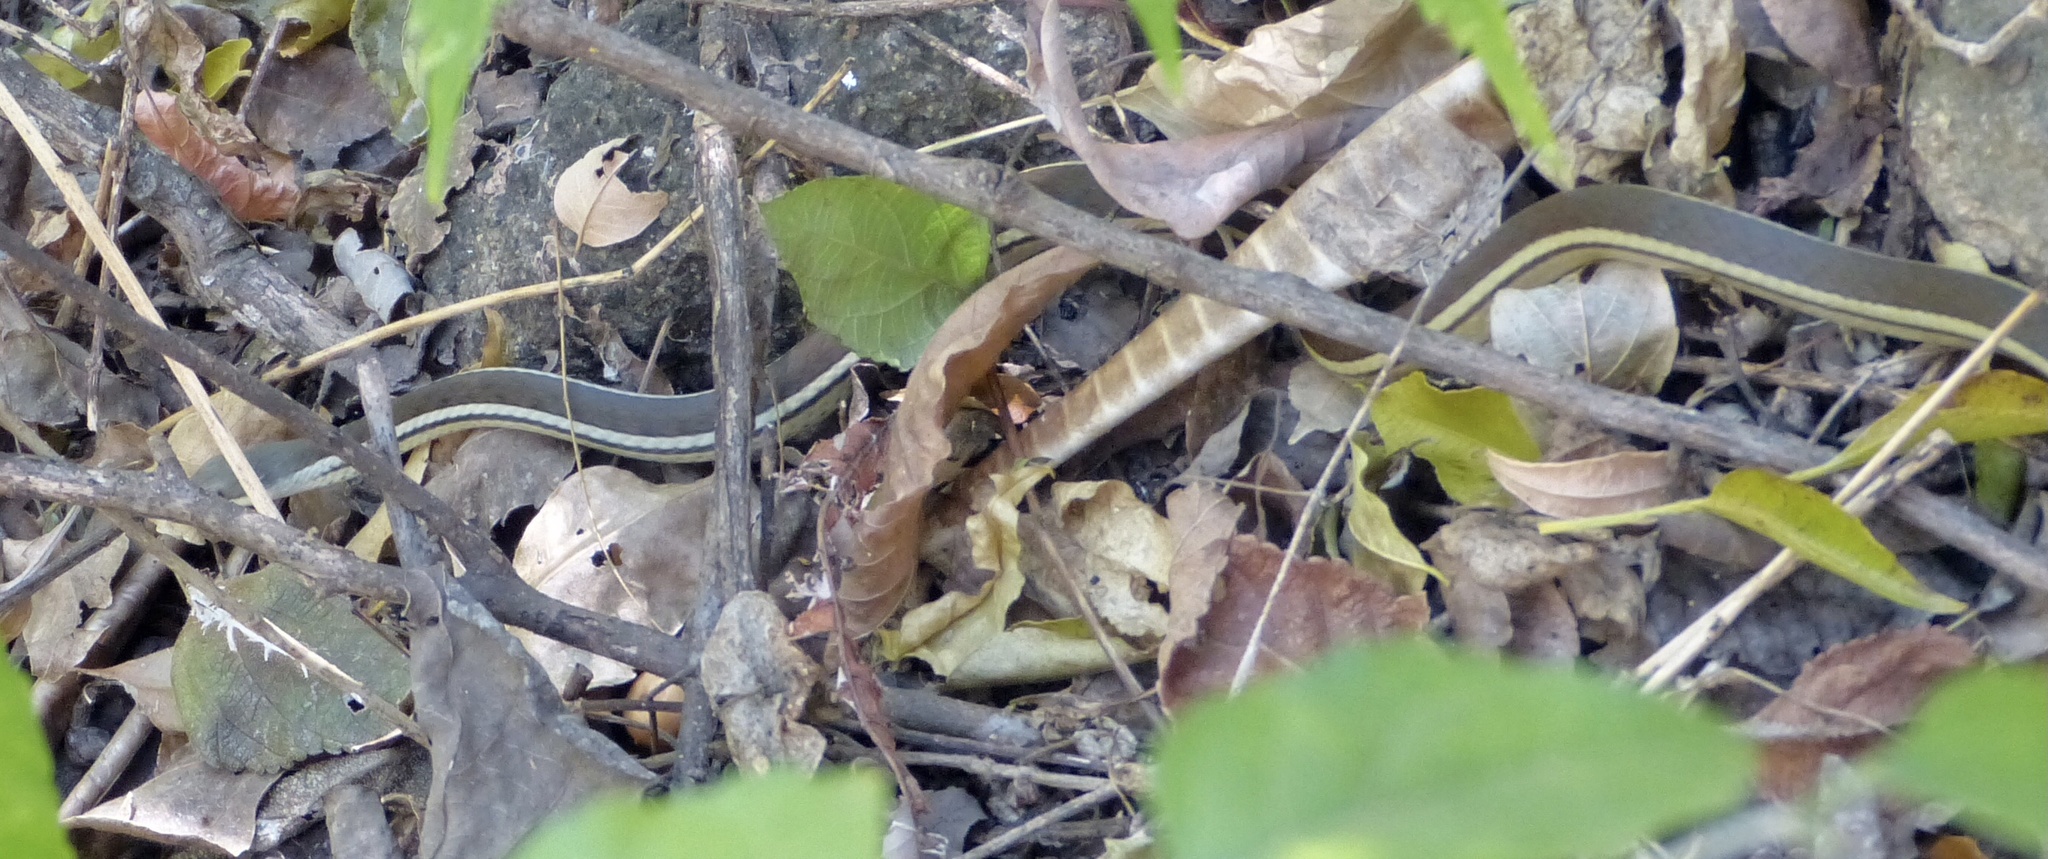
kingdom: Animalia
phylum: Chordata
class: Squamata
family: Pseudoxyrhophiidae
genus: Thamnosophis
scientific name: Thamnosophis lateralis
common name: Lateral water snake
